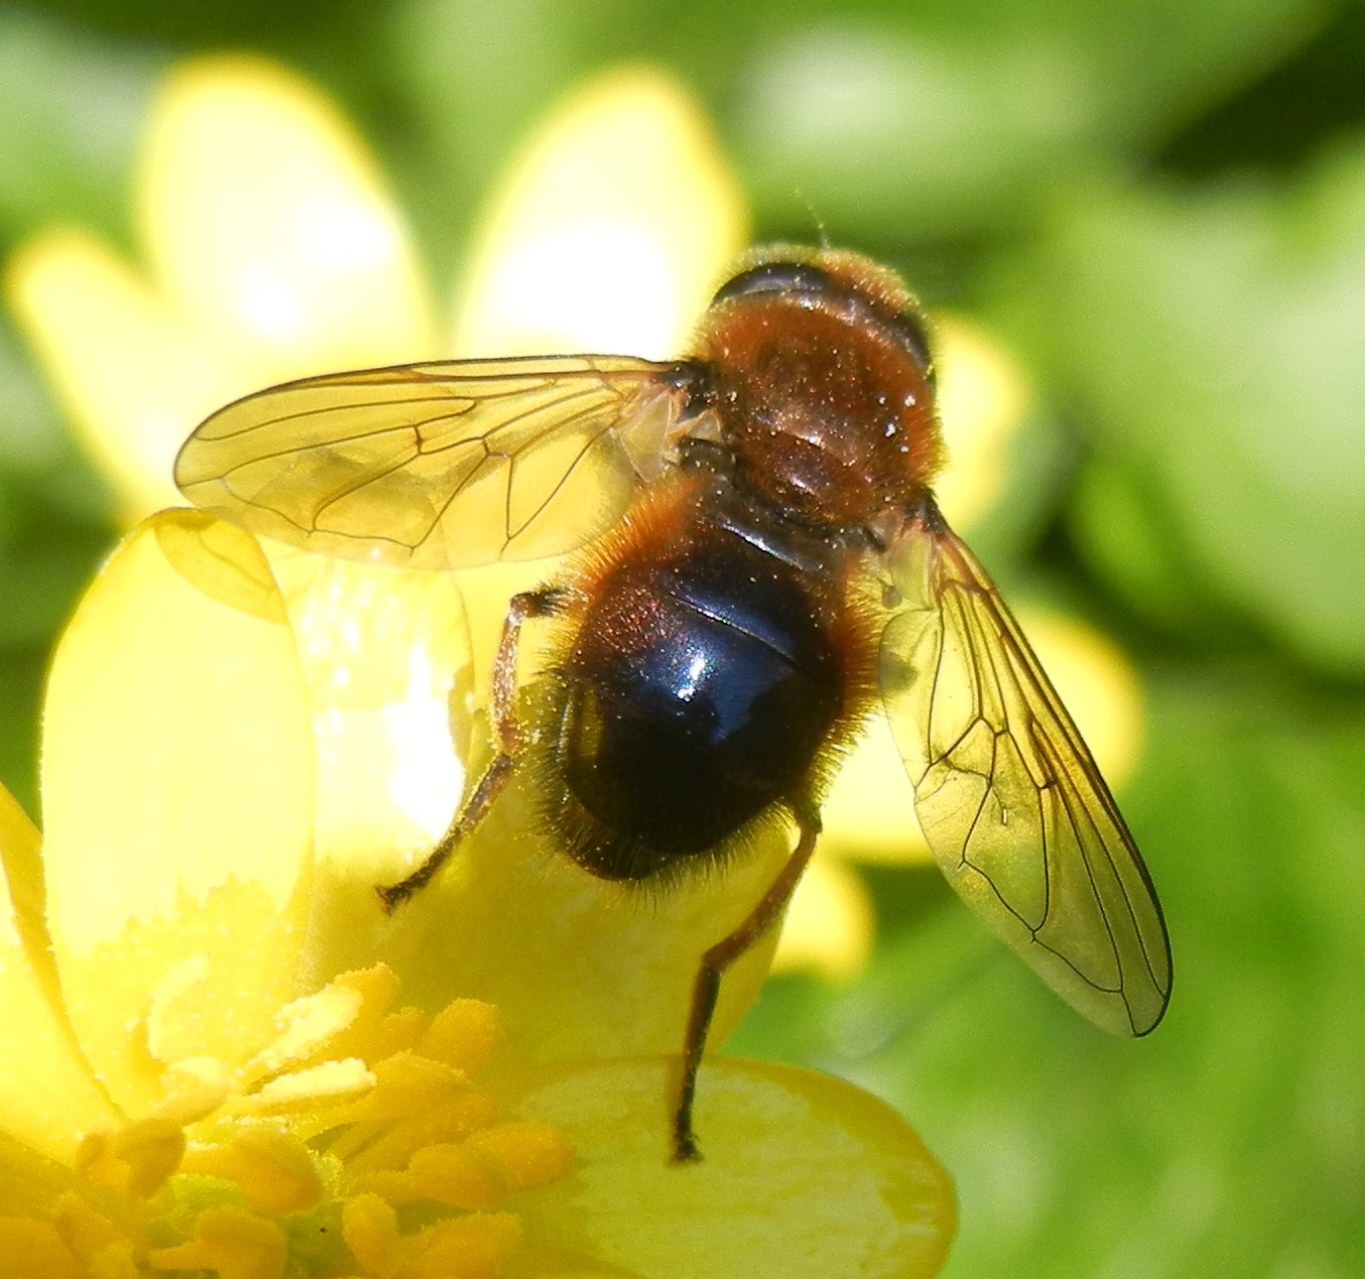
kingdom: Animalia
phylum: Arthropoda
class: Insecta
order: Diptera
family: Syrphidae
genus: Cheilosia
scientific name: Cheilosia corydon
